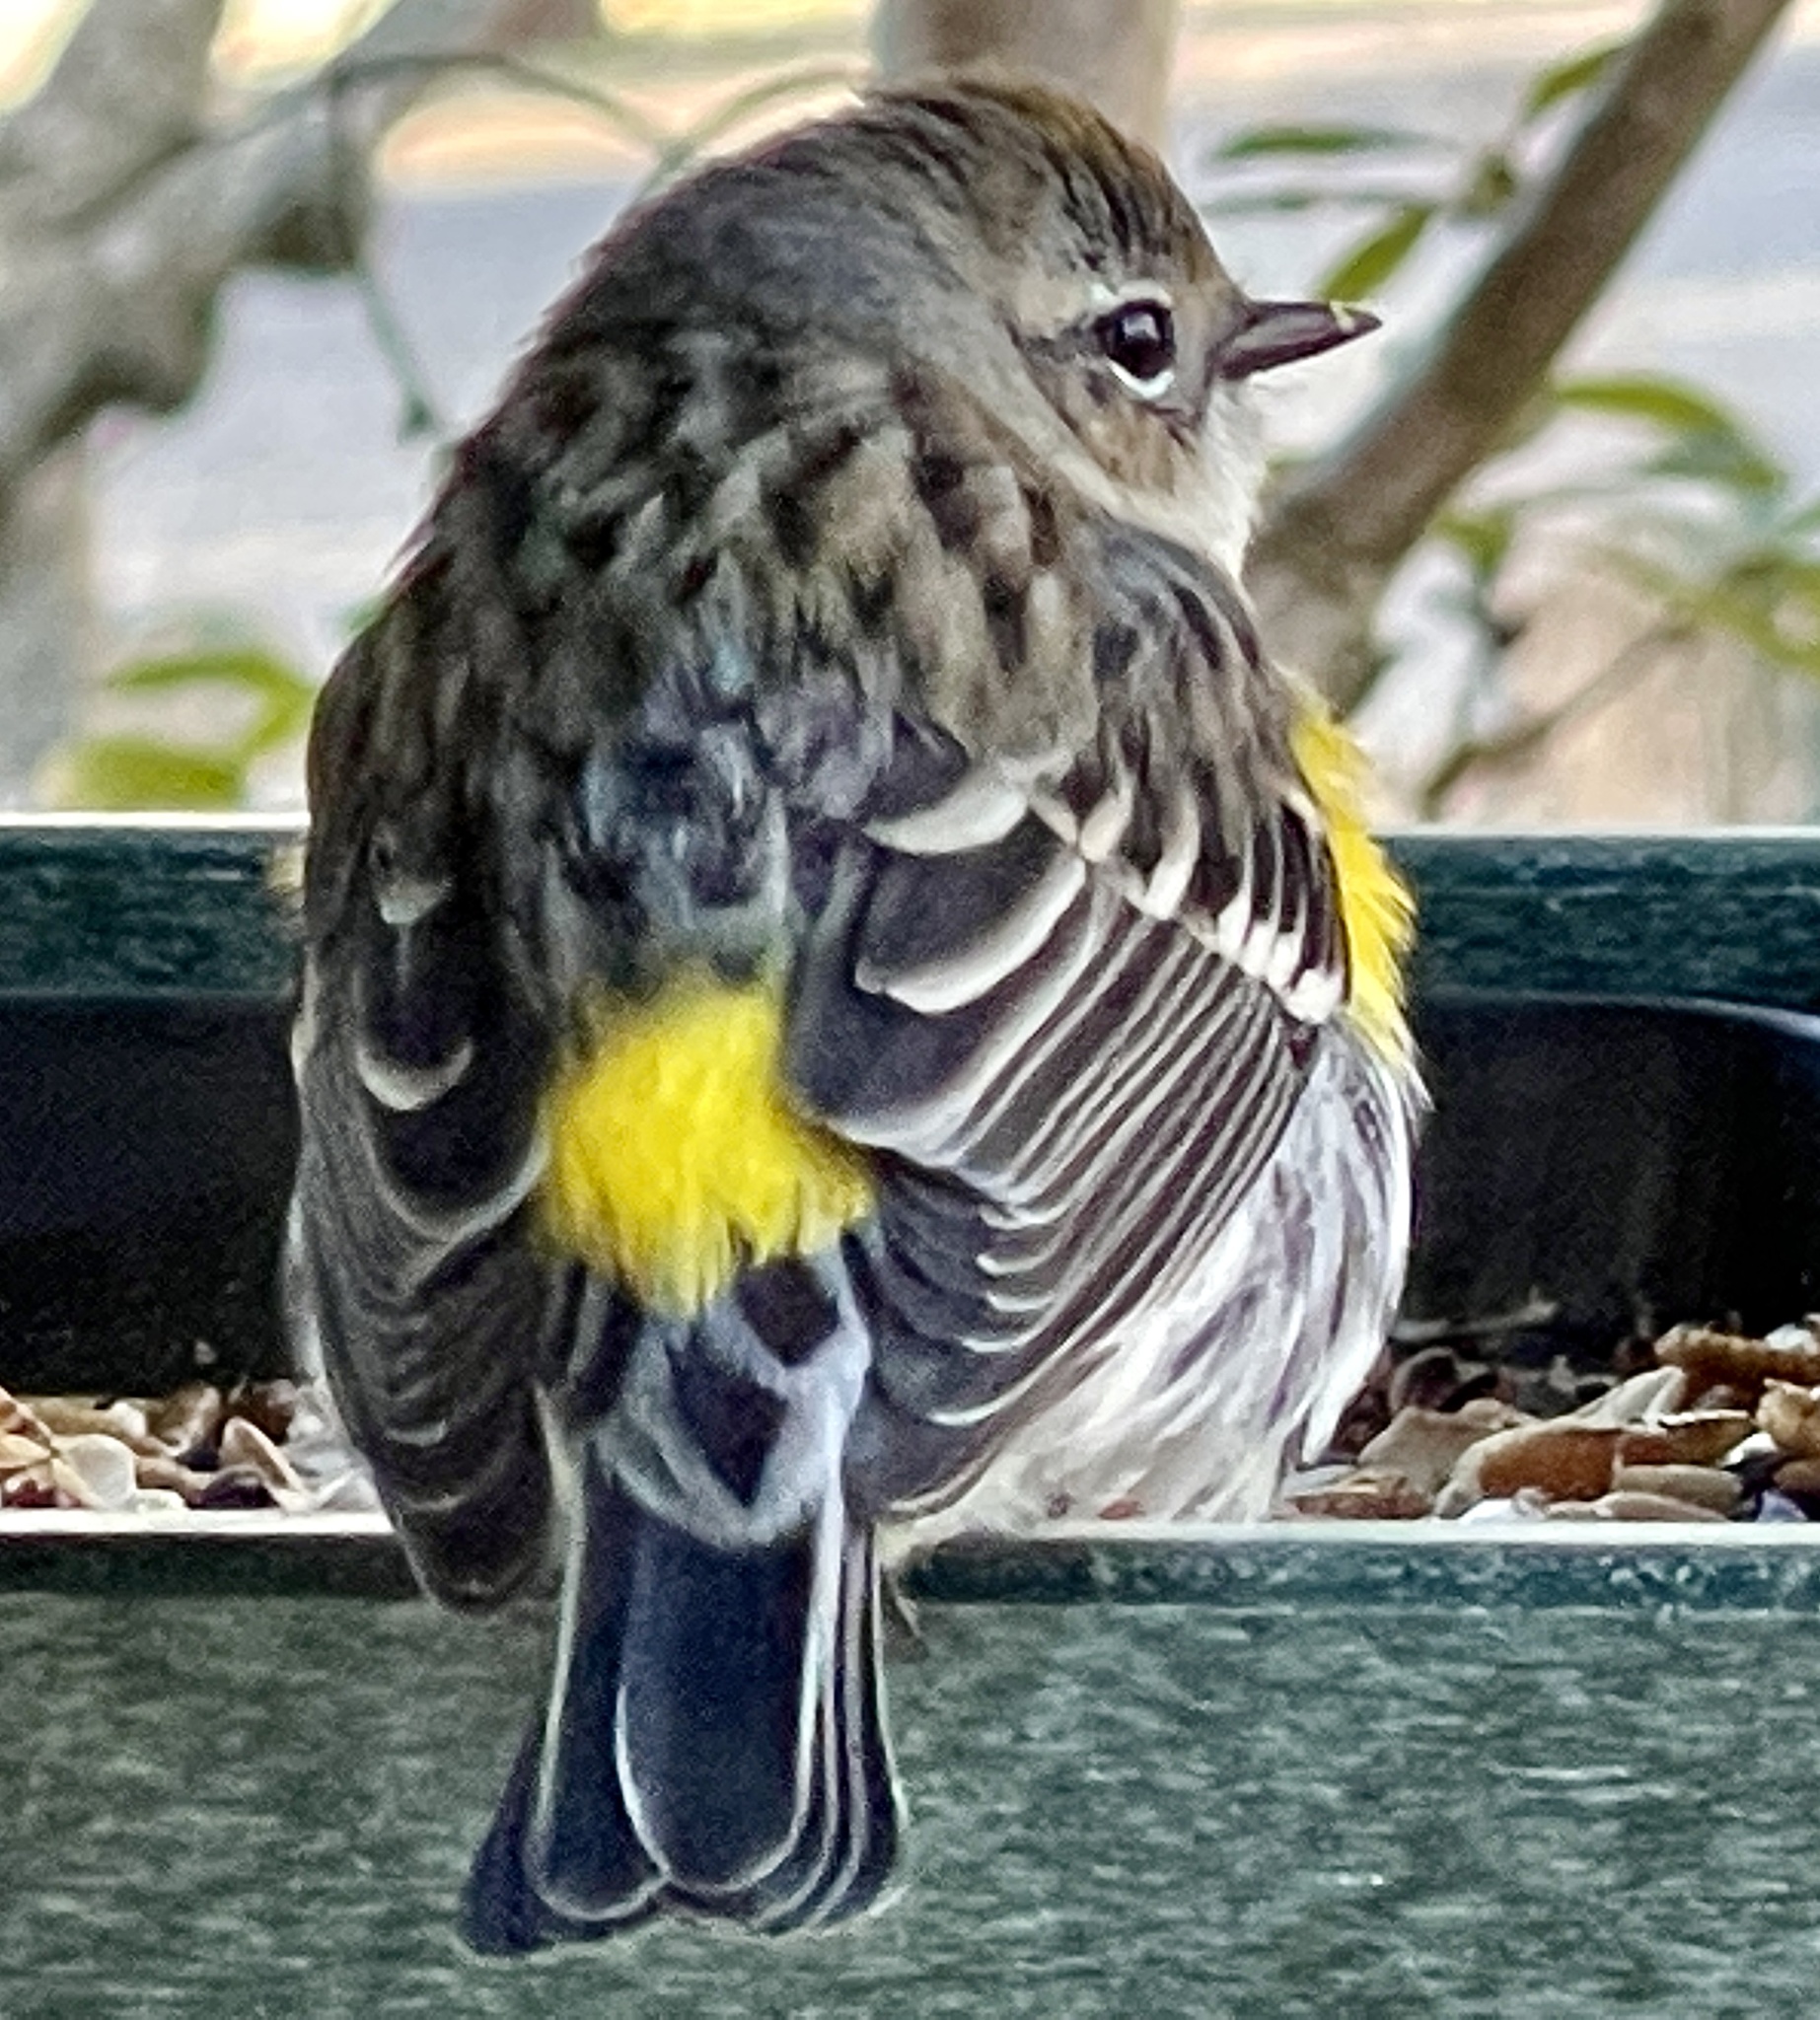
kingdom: Animalia
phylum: Chordata
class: Aves
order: Passeriformes
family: Parulidae
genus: Setophaga
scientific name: Setophaga coronata
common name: Myrtle warbler
